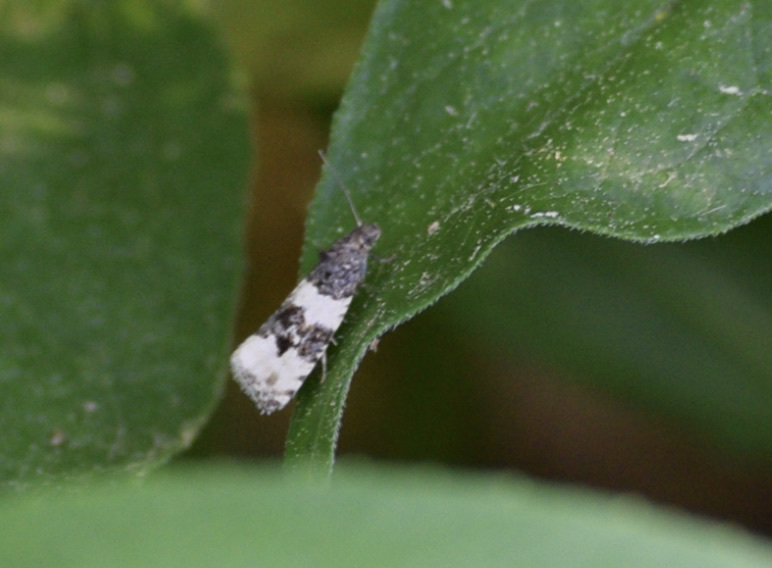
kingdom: Animalia
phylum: Arthropoda
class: Insecta
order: Lepidoptera
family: Tortricidae
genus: Olethreutes
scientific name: Olethreutes bipartitana
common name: Divided olethreutes moth
